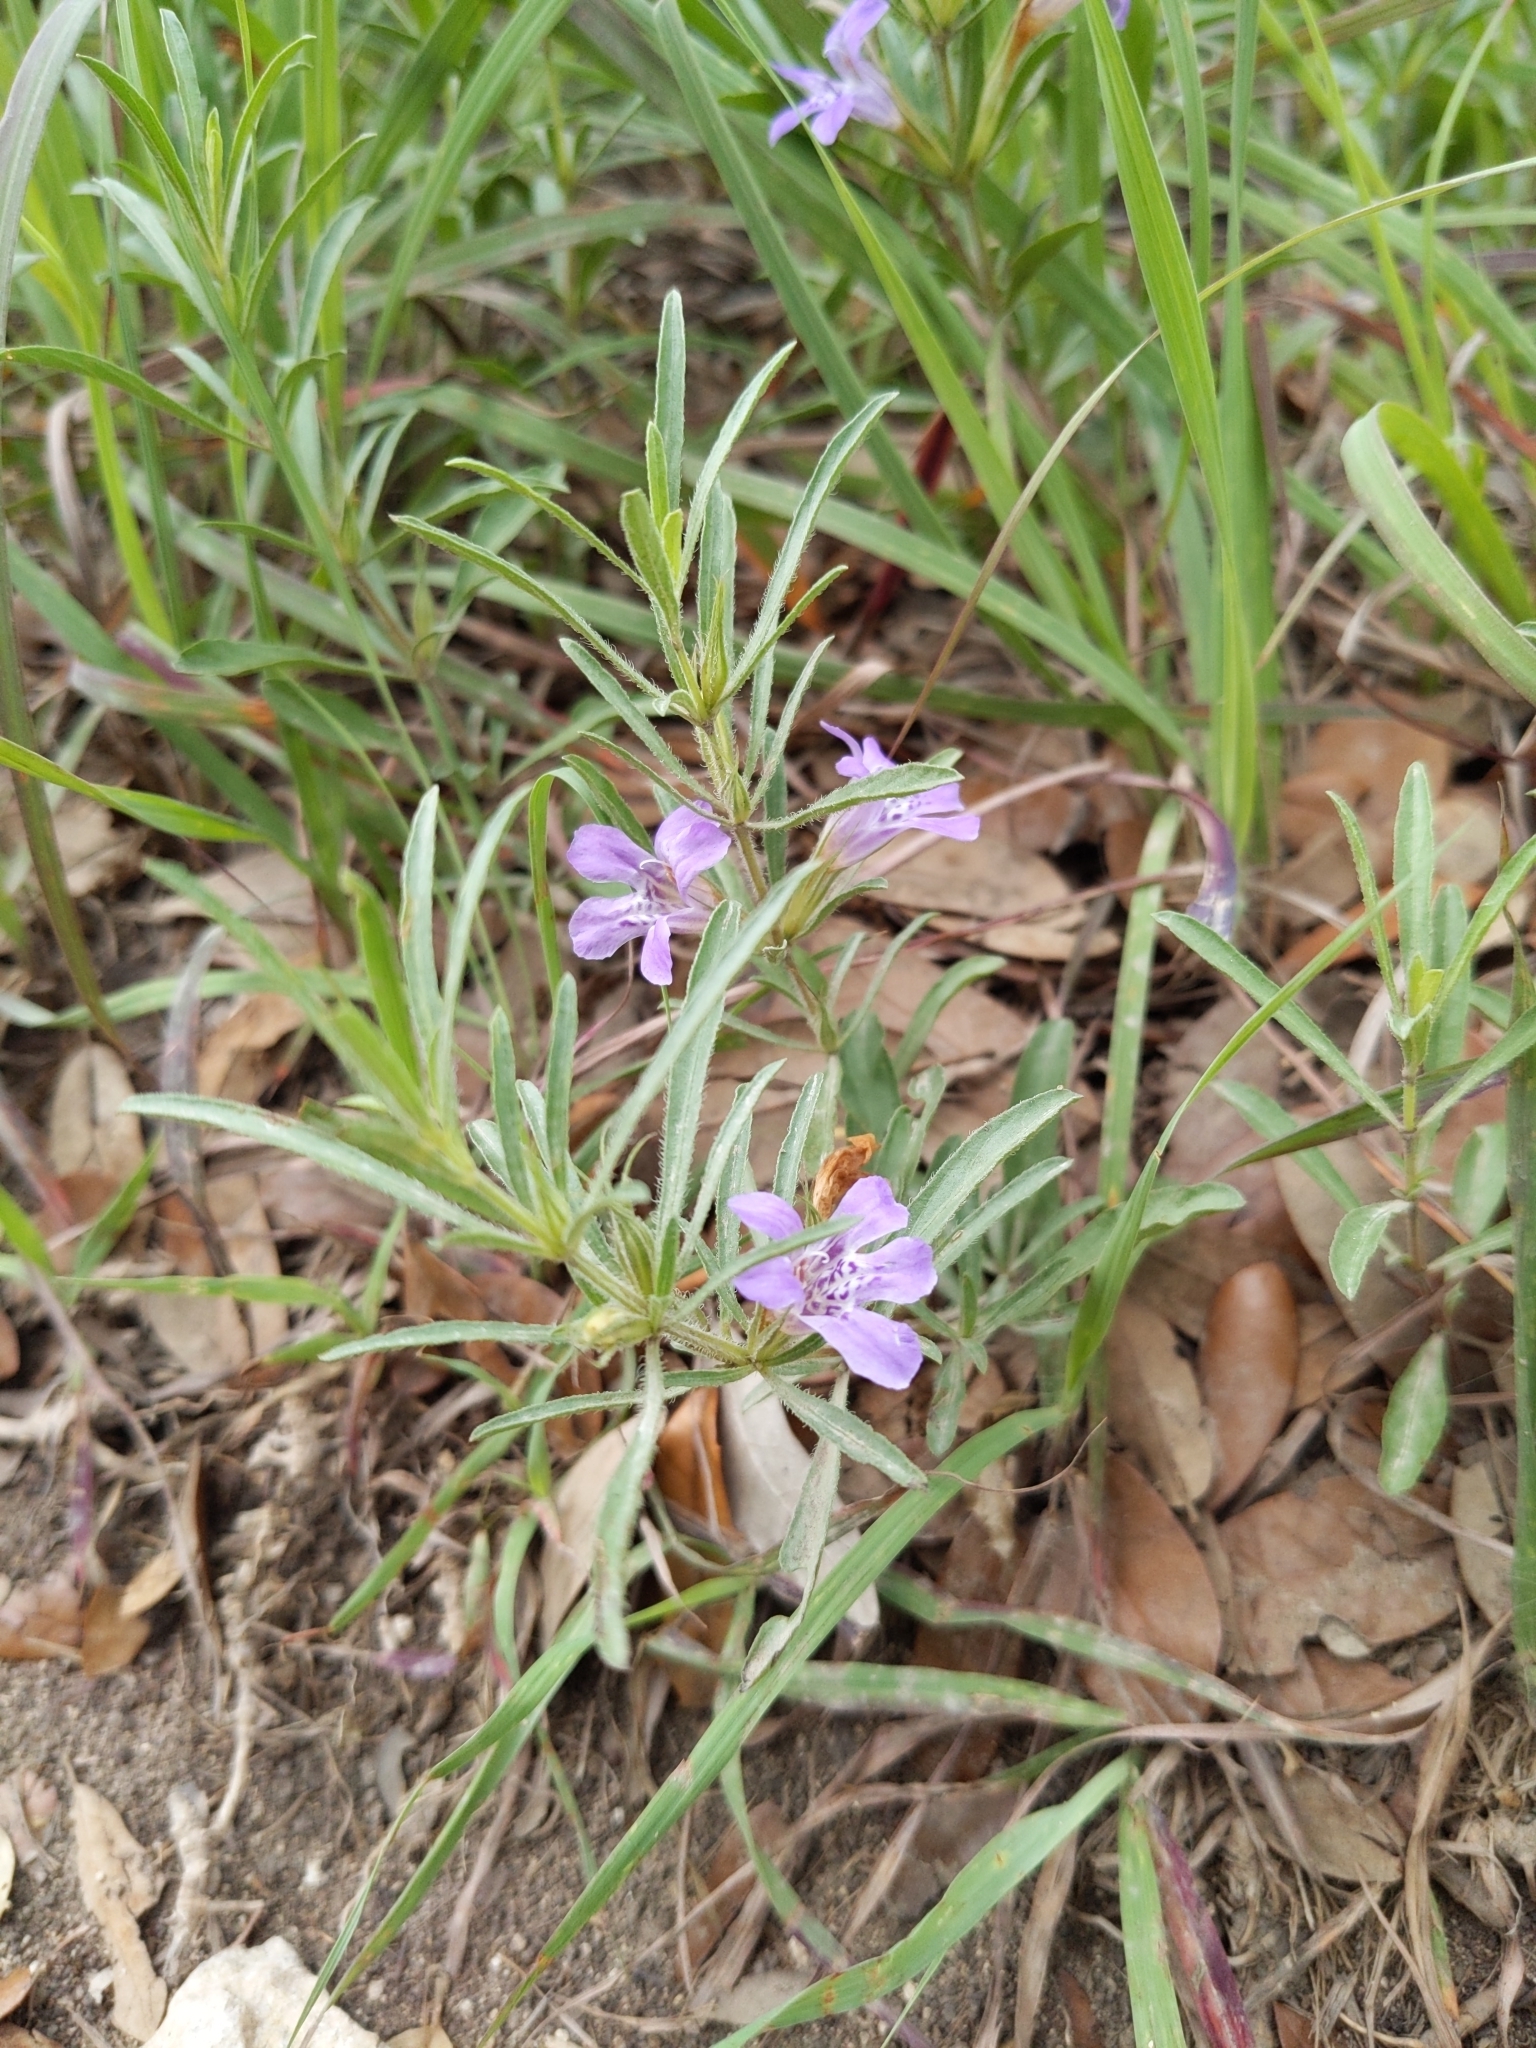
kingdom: Plantae
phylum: Tracheophyta
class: Magnoliopsida
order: Lamiales
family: Acanthaceae
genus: Dyschoriste
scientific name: Dyschoriste linearis
